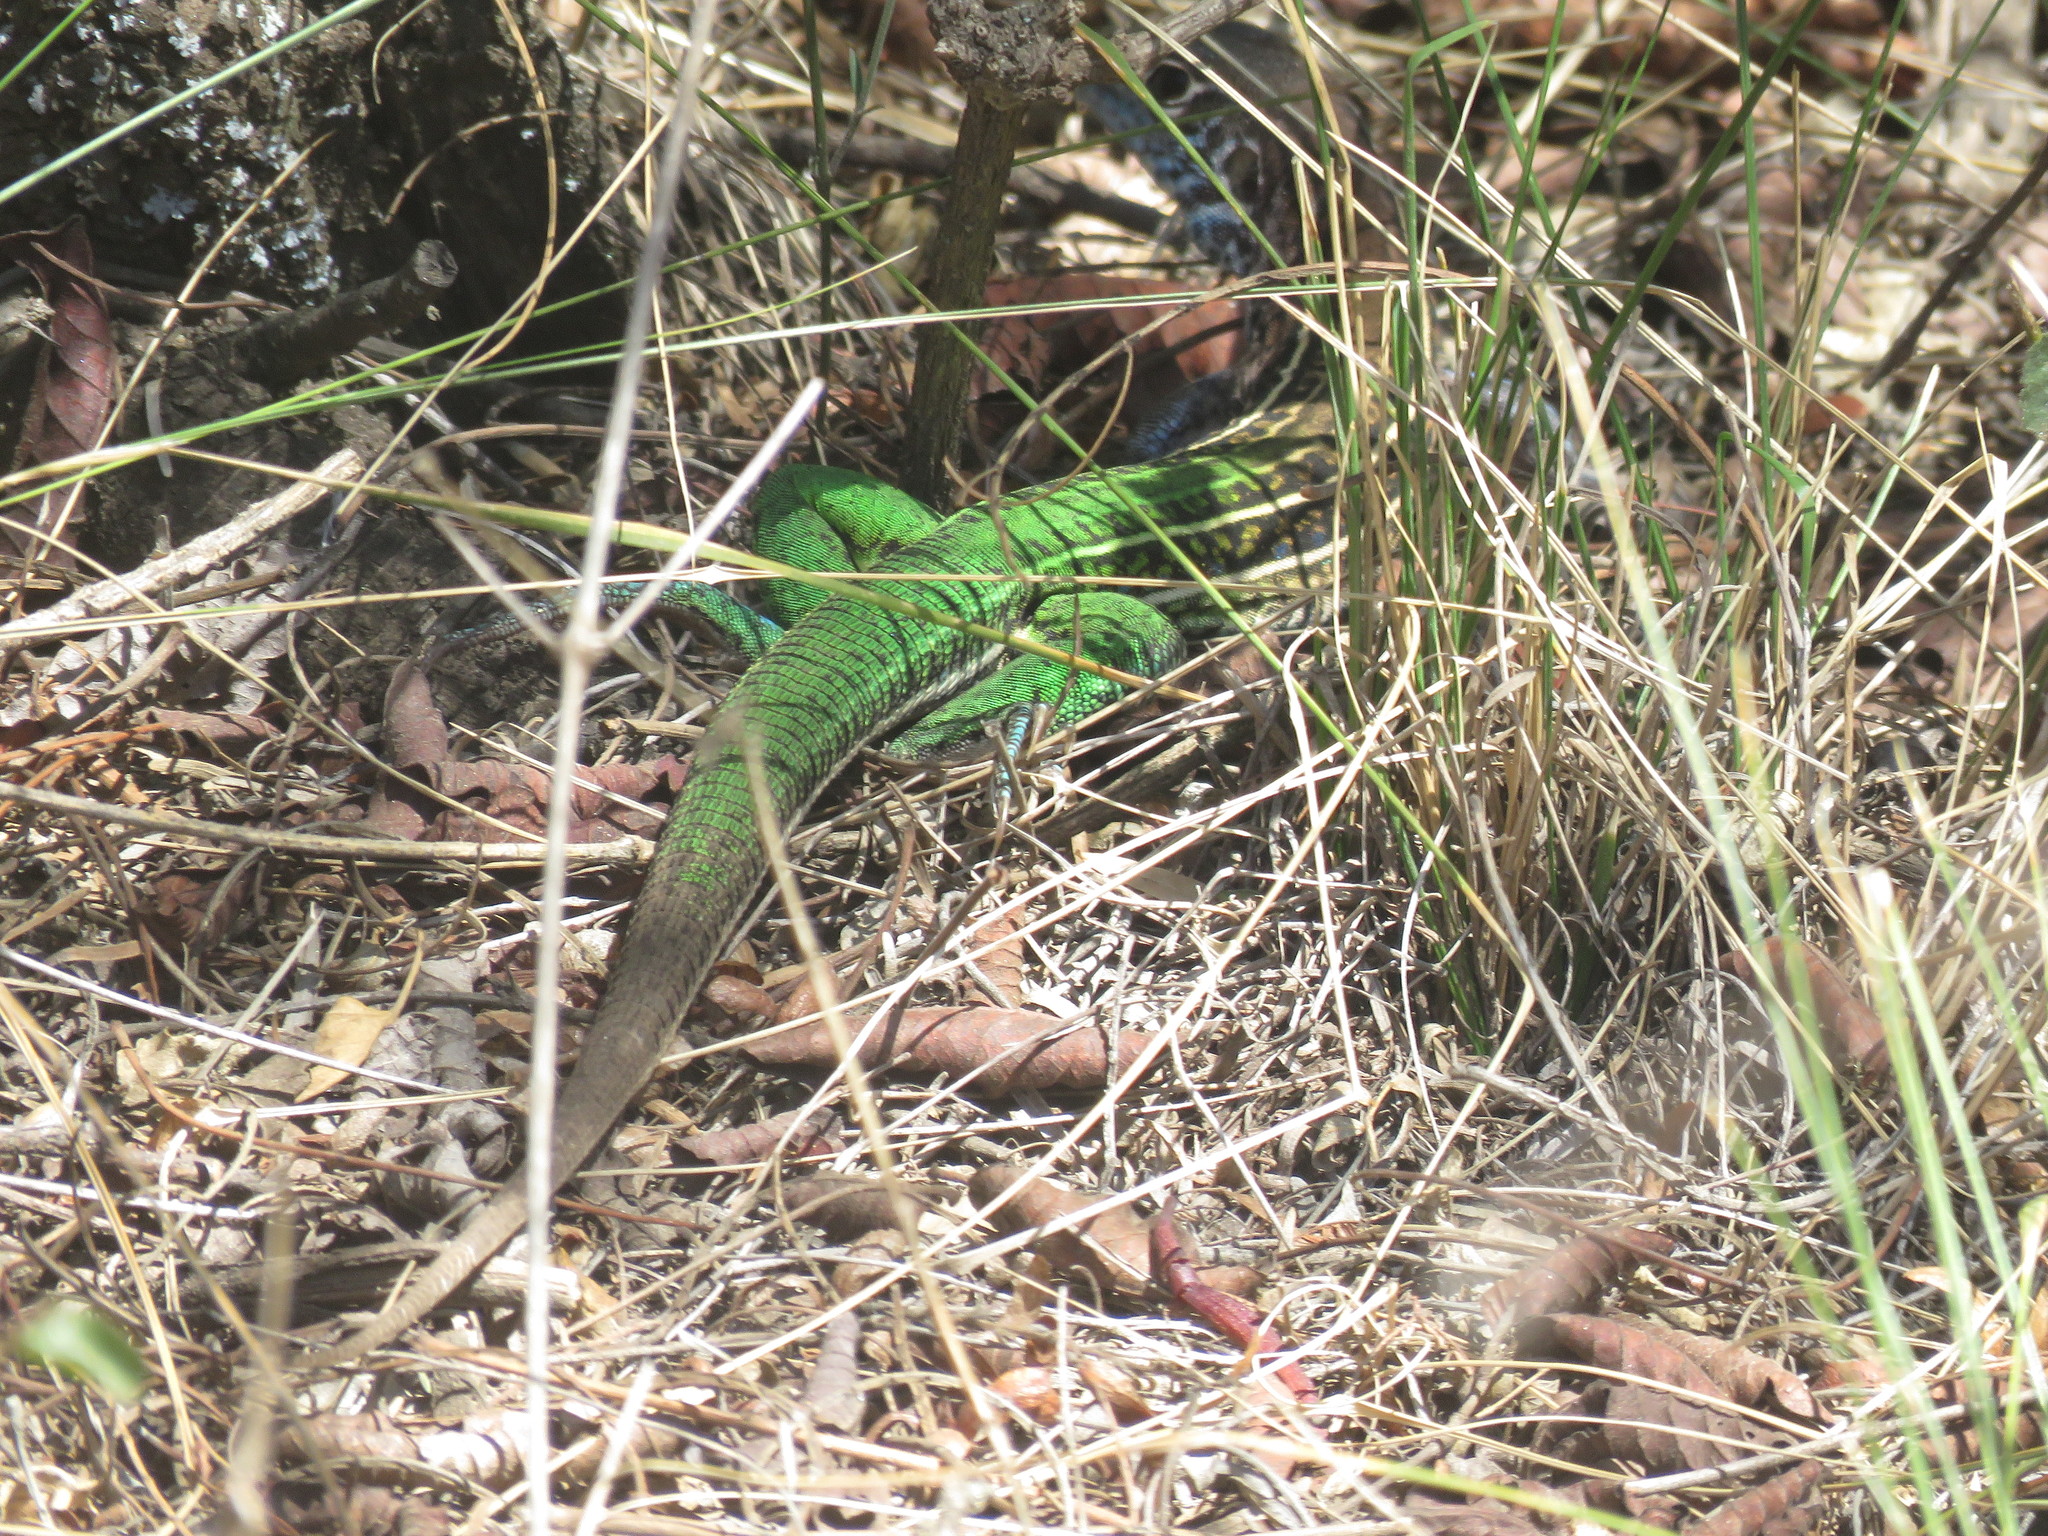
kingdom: Animalia
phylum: Chordata
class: Squamata
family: Teiidae
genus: Teius
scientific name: Teius teyou
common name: Four-toed tegu
